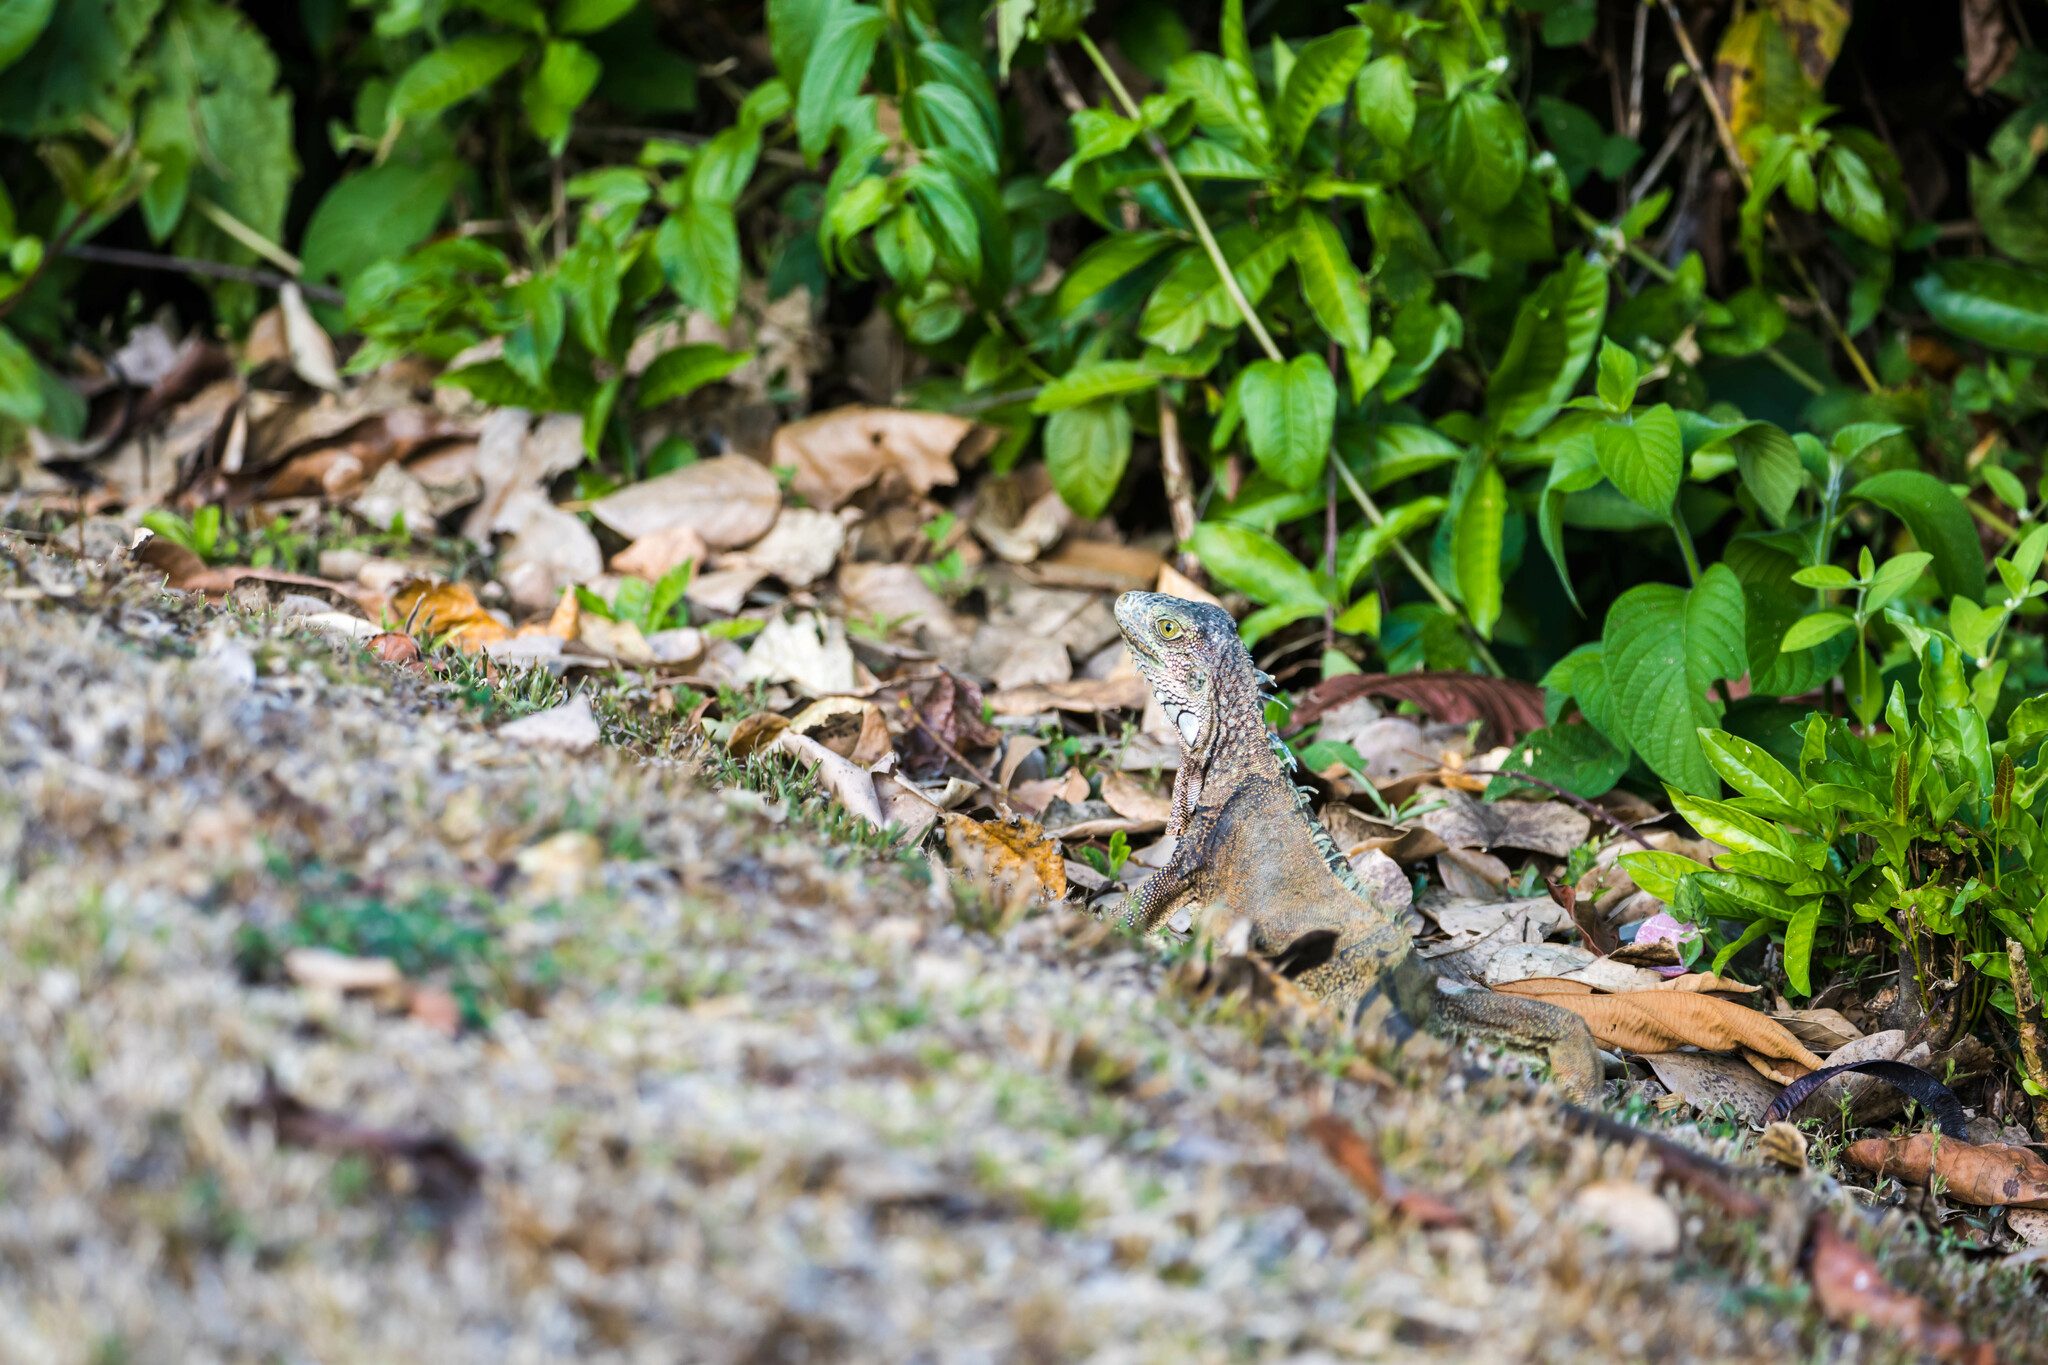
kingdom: Animalia
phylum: Chordata
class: Squamata
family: Iguanidae
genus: Iguana
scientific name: Iguana iguana
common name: Green iguana
